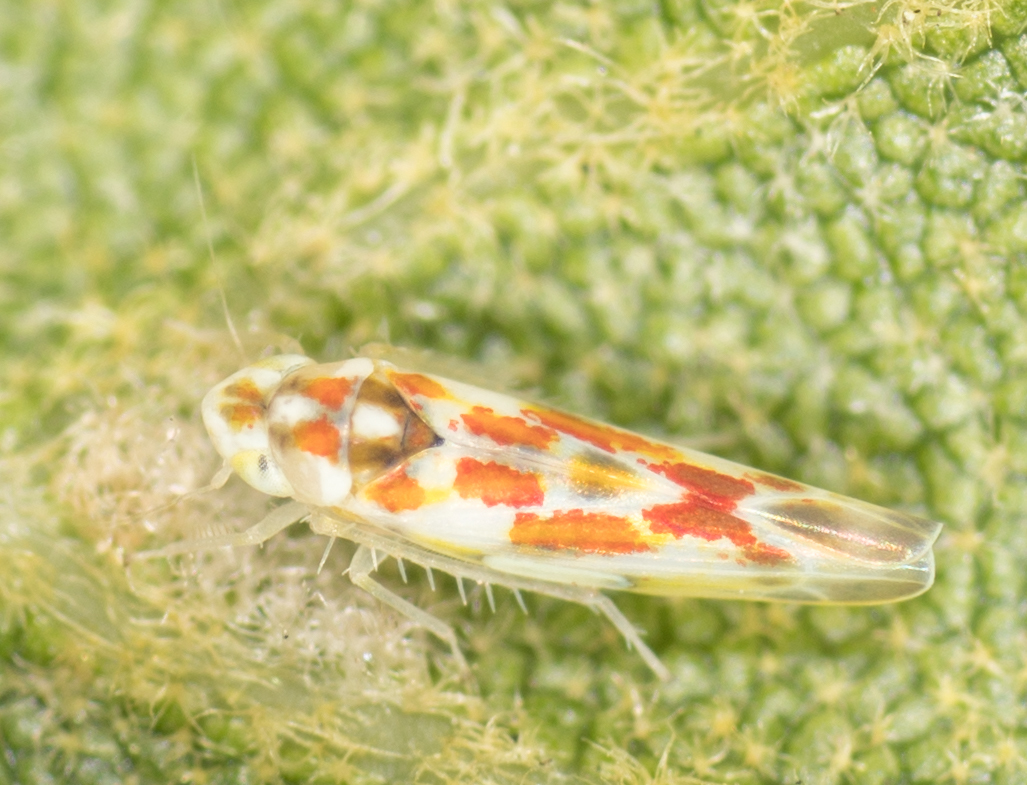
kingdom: Animalia
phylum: Arthropoda
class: Insecta
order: Hemiptera
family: Cicadellidae
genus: Zyginama
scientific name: Zyginama erosa
